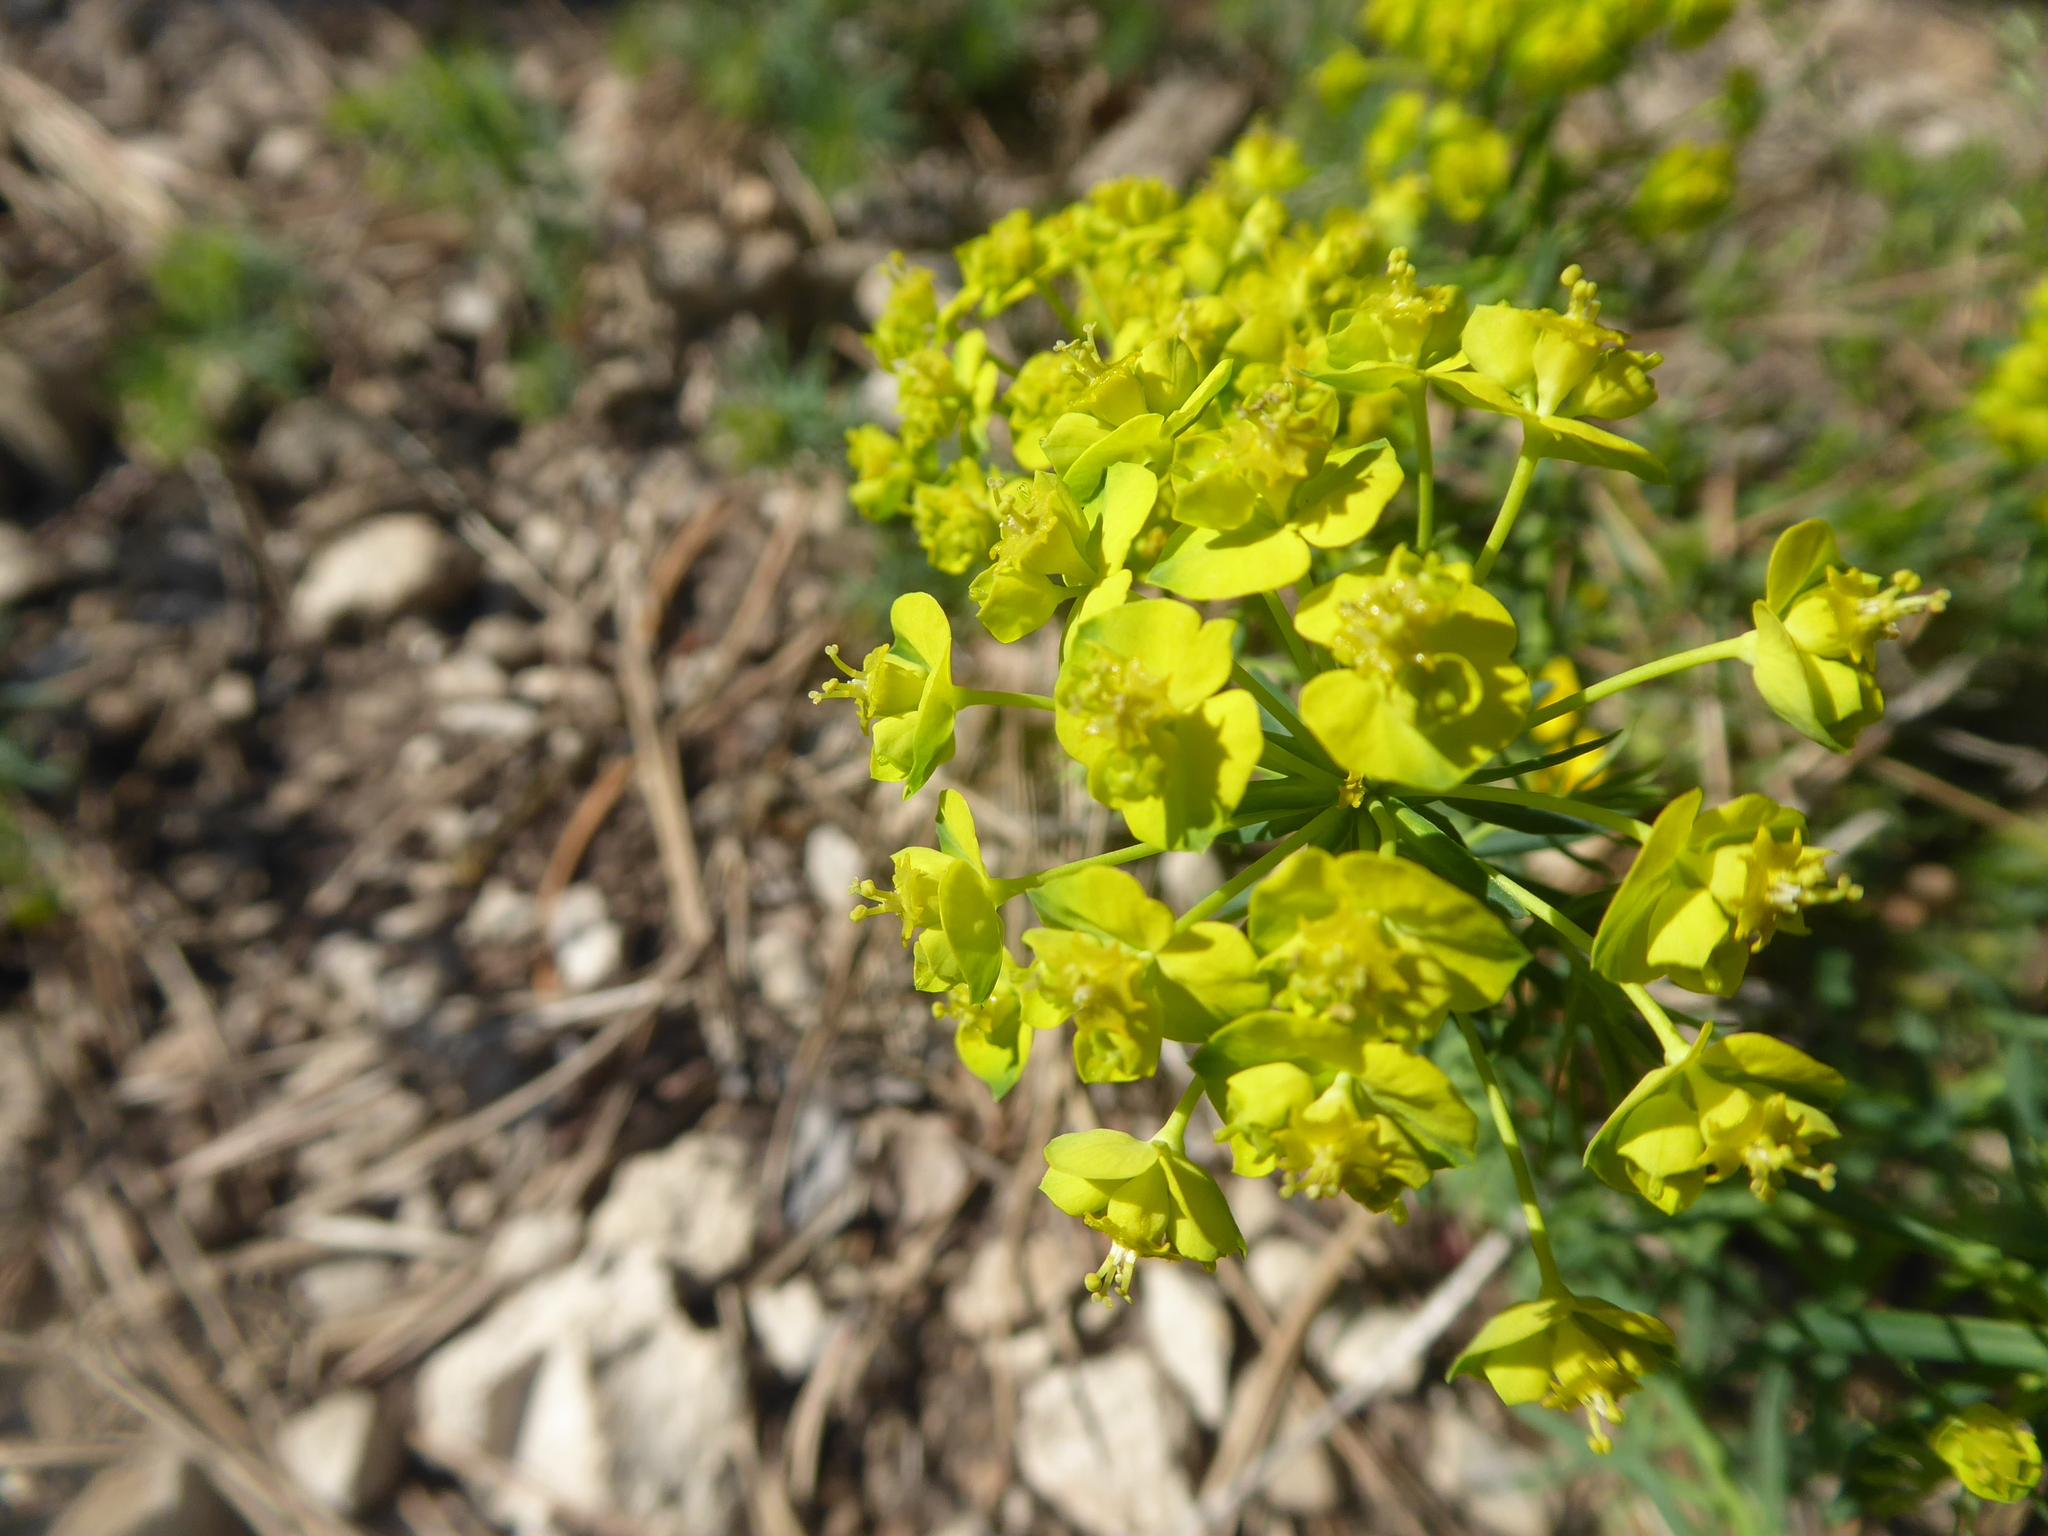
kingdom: Plantae
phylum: Tracheophyta
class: Magnoliopsida
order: Malpighiales
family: Euphorbiaceae
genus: Euphorbia
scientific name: Euphorbia cyparissias
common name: Cypress spurge
